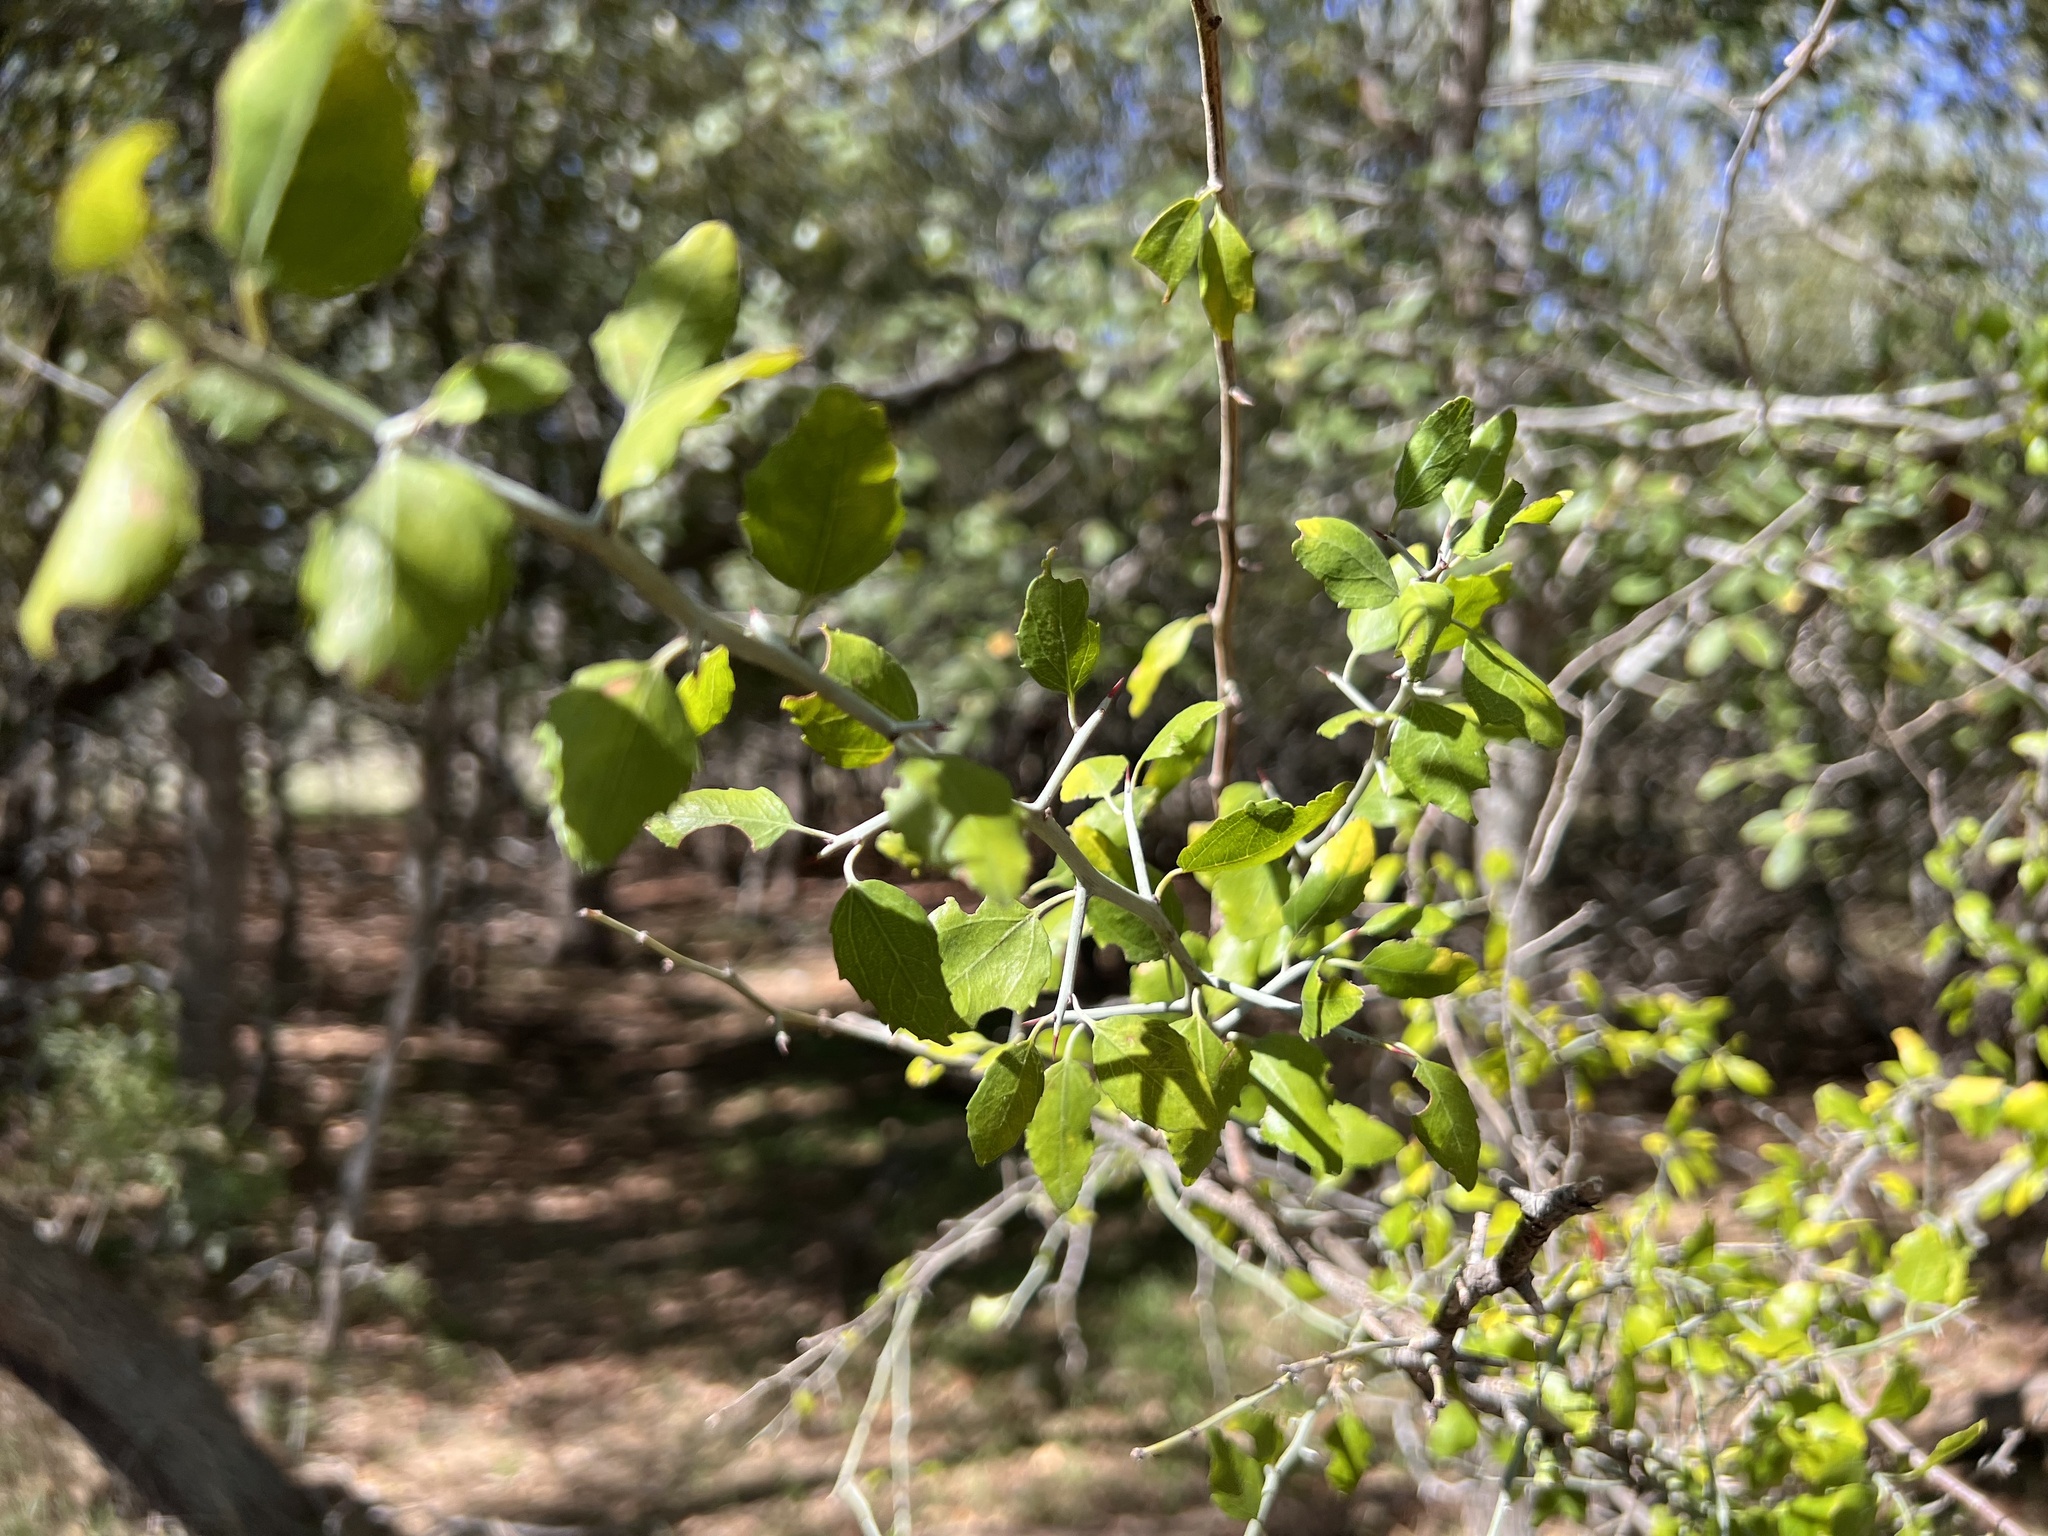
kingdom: Plantae
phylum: Tracheophyta
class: Magnoliopsida
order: Rosales
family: Rhamnaceae
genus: Sarcomphalus
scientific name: Sarcomphalus obtusifolius
